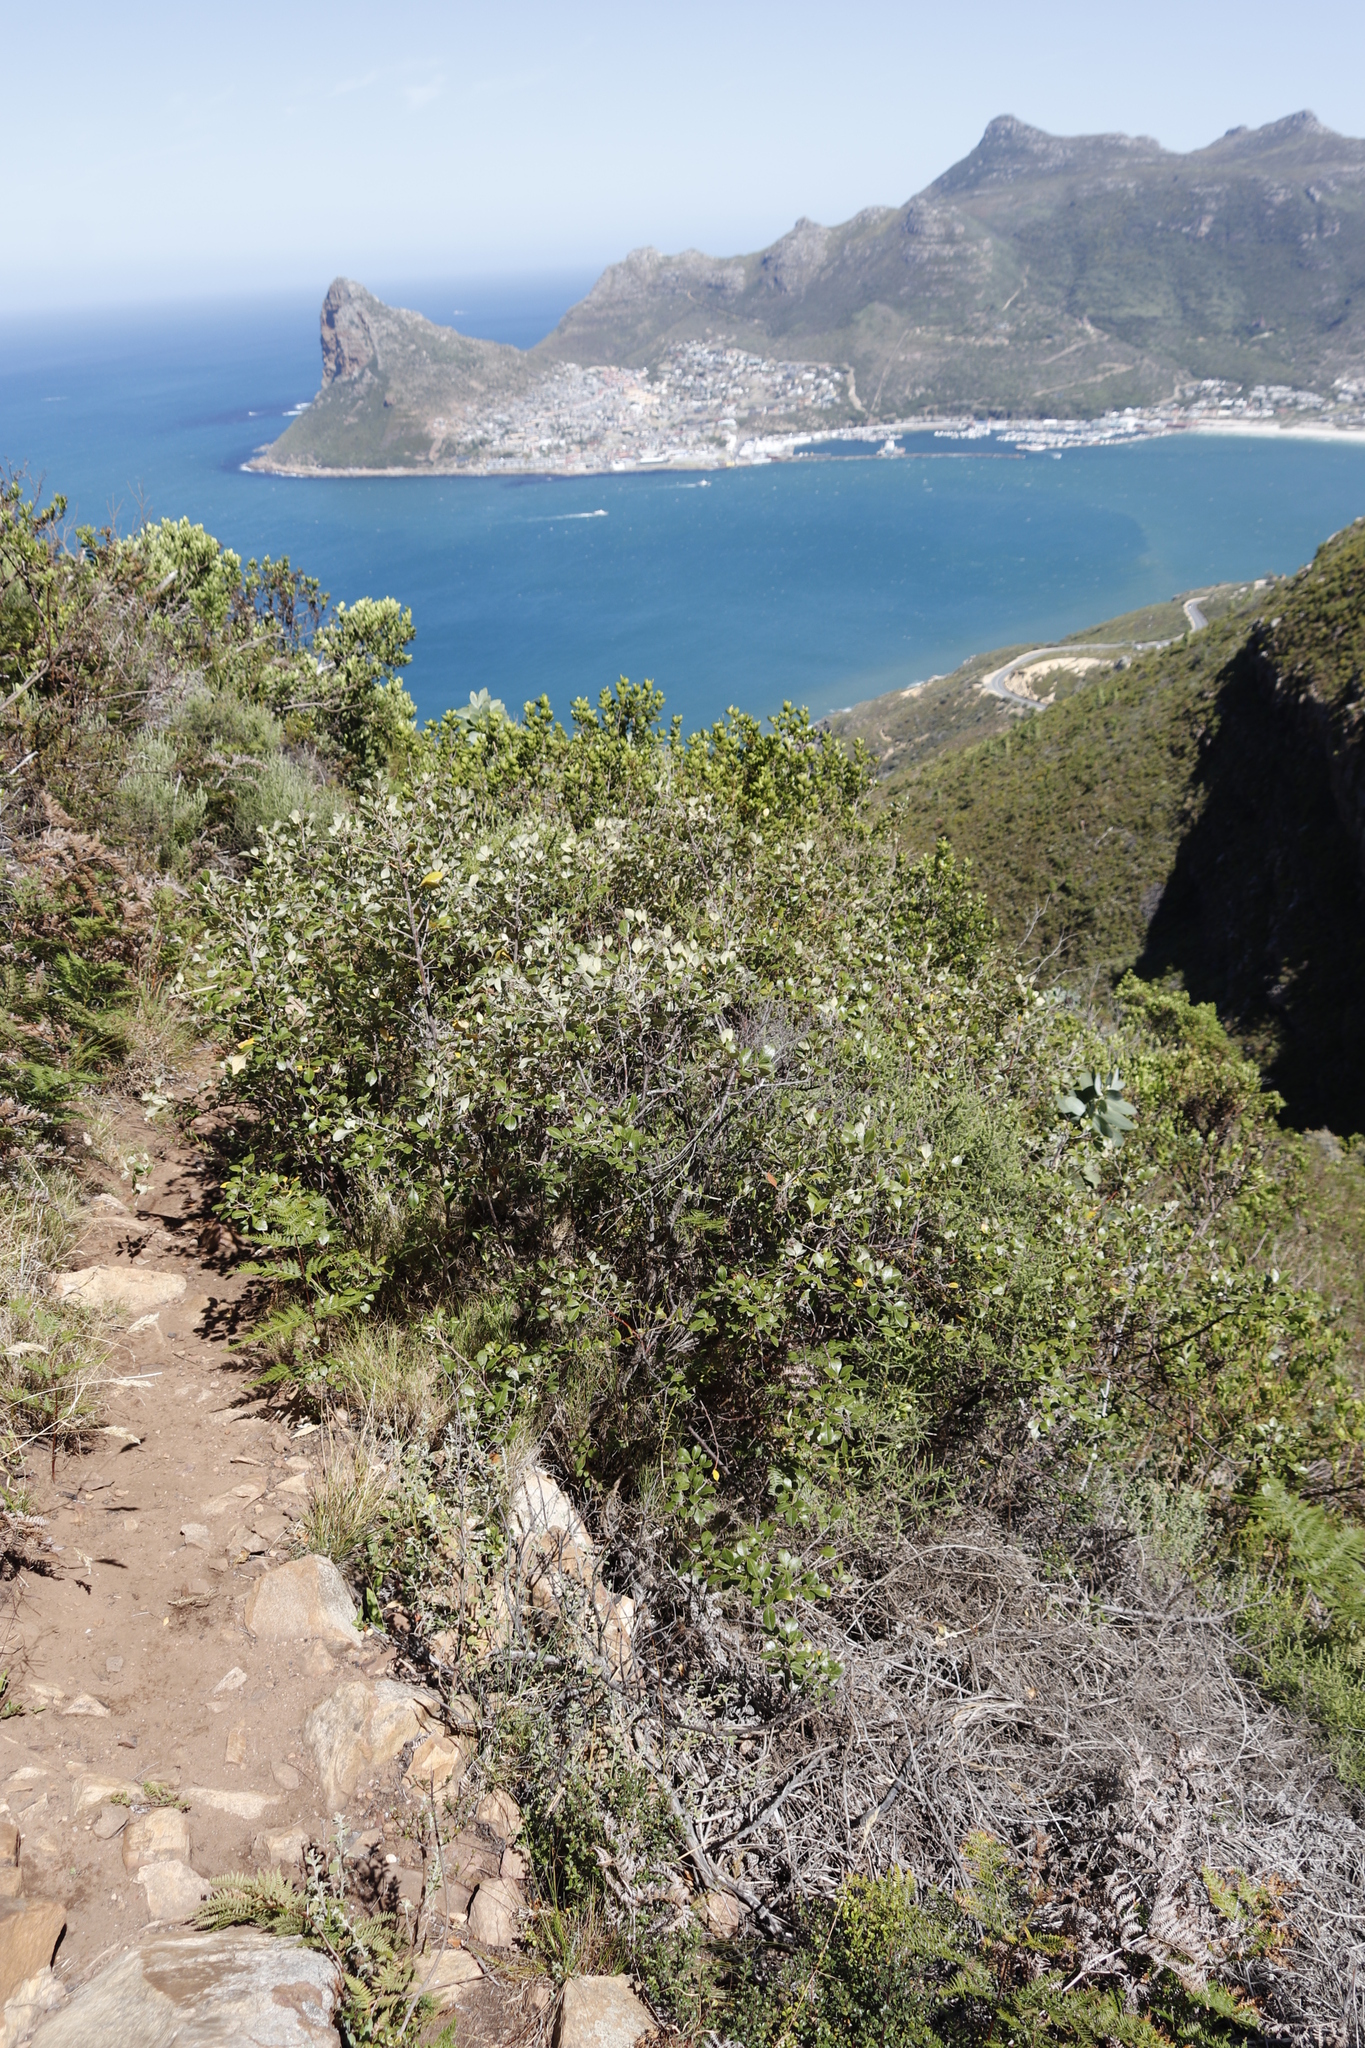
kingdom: Plantae
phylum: Tracheophyta
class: Magnoliopsida
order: Sapindales
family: Anacardiaceae
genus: Searsia
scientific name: Searsia tomentosa
